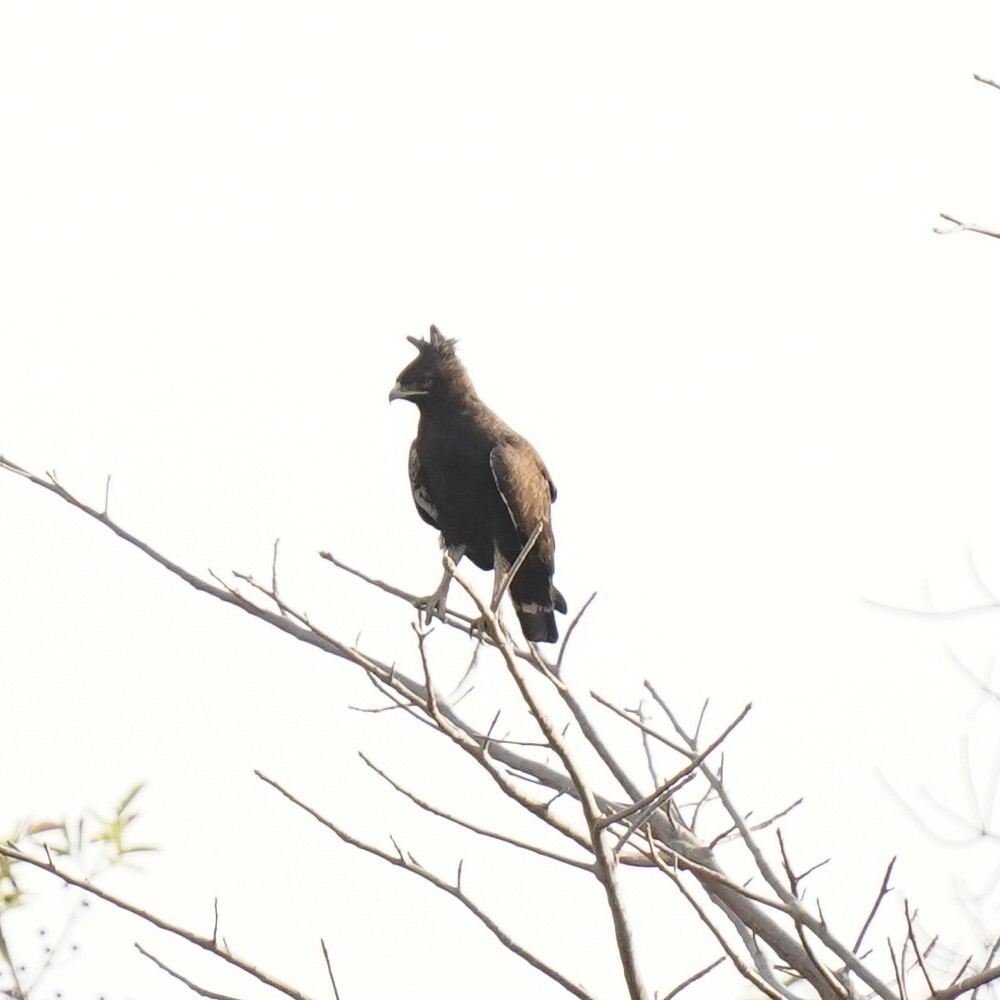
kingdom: Animalia
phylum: Chordata
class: Aves
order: Accipitriformes
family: Accipitridae
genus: Lophaetus
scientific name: Lophaetus occipitalis
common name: Long-crested eagle
